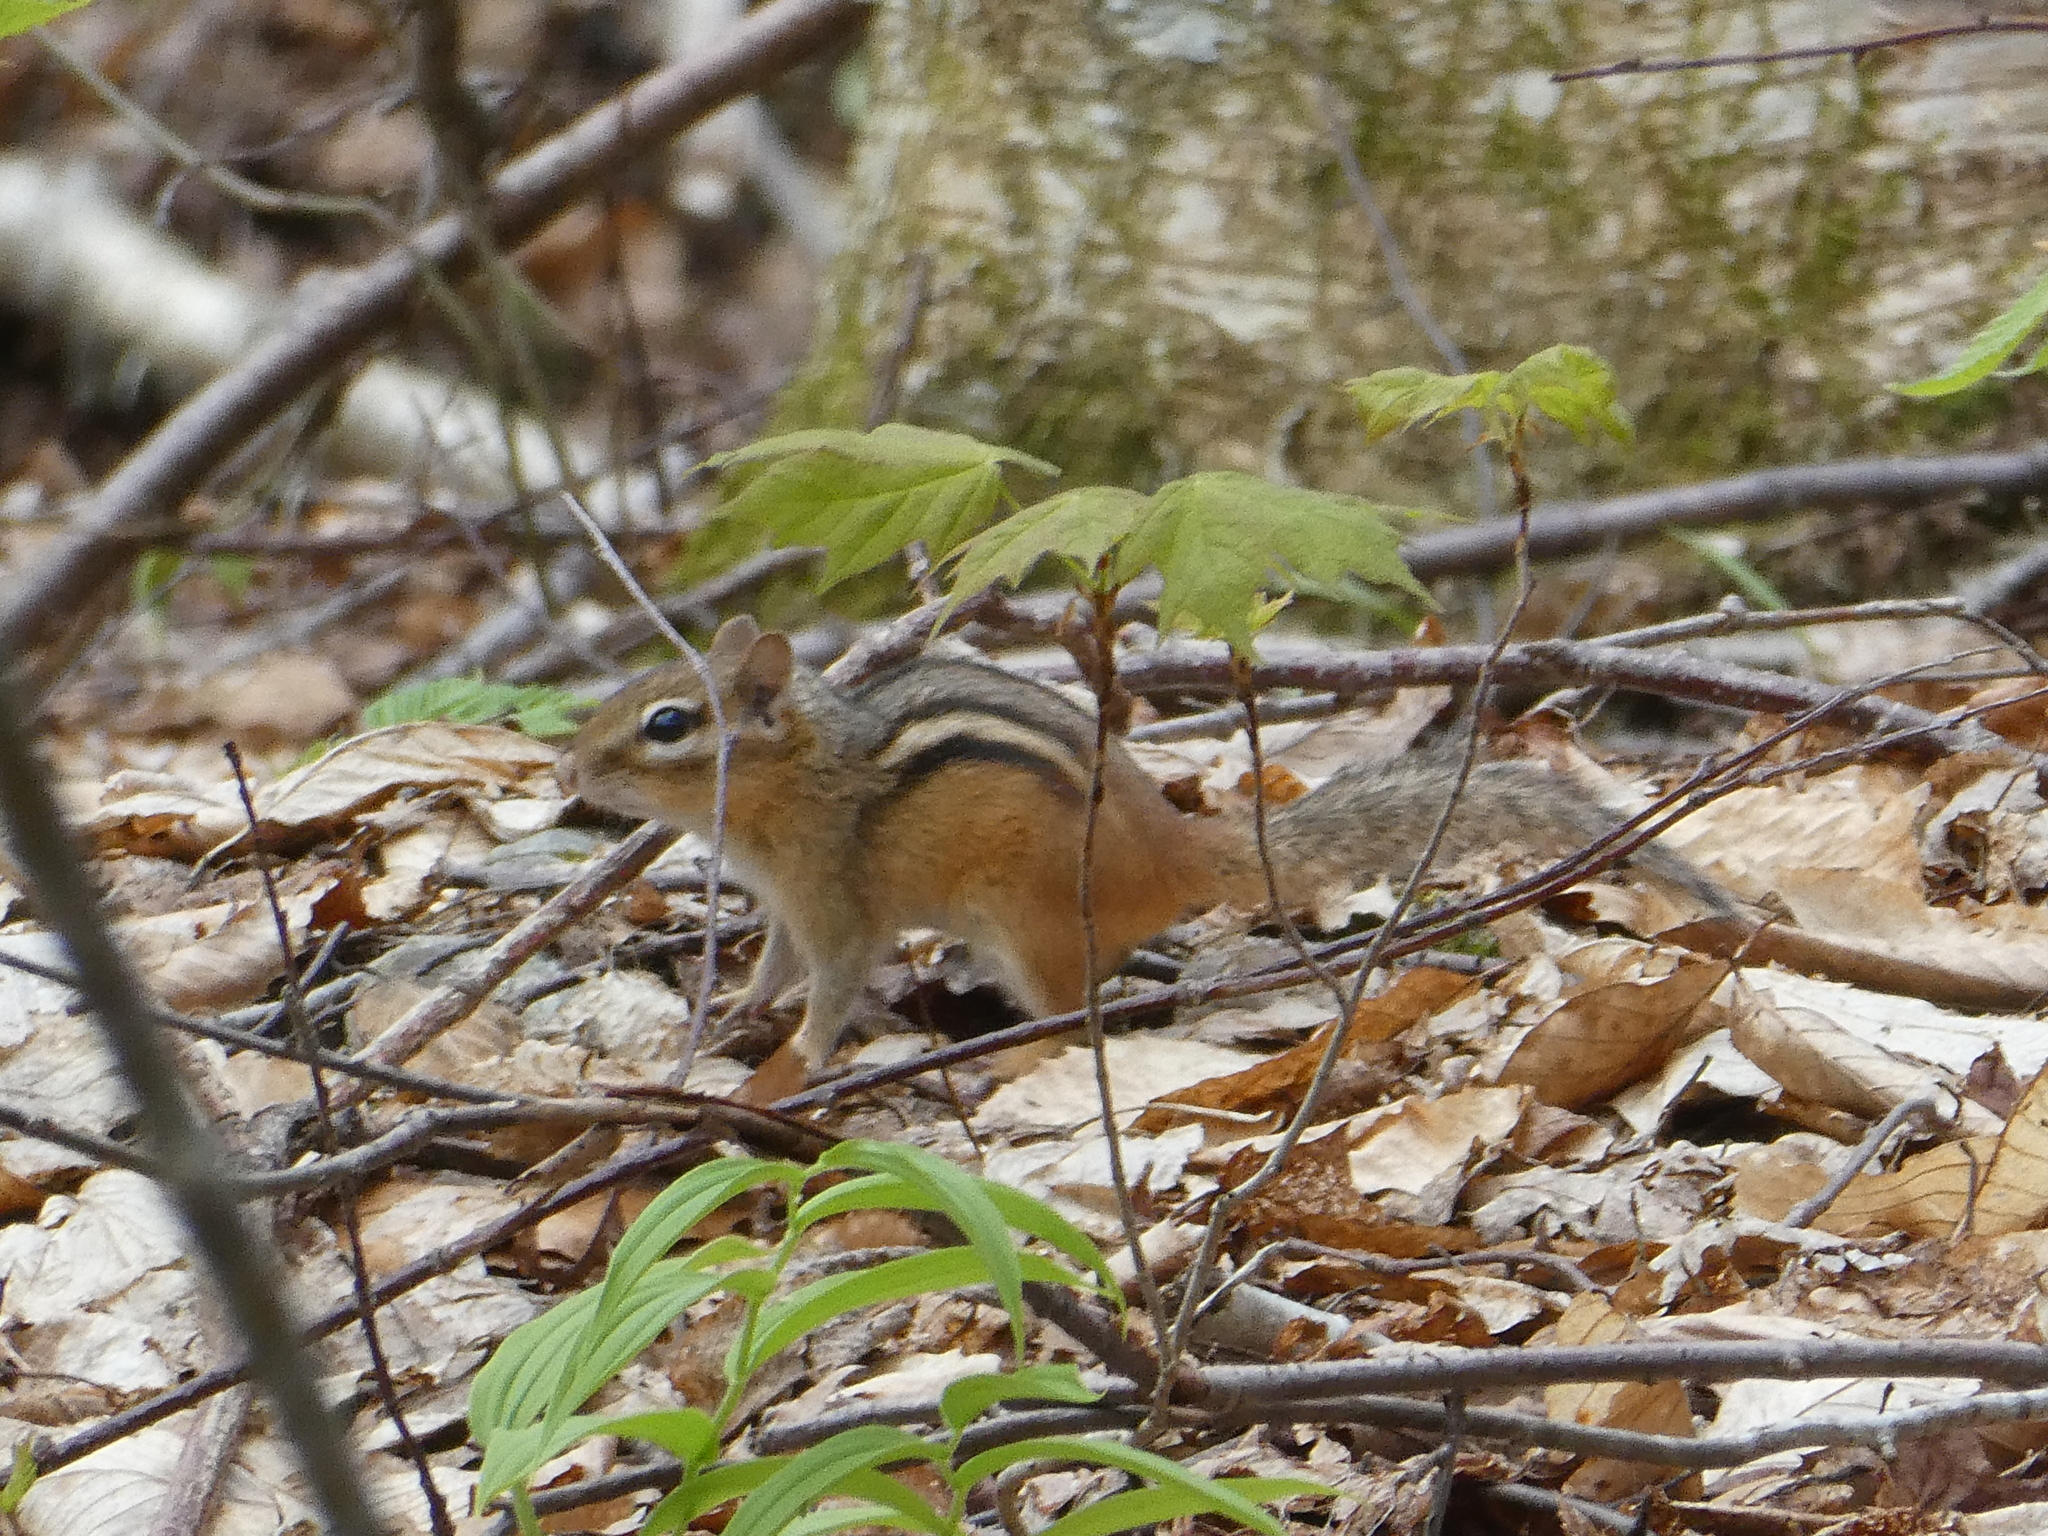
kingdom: Animalia
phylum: Chordata
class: Mammalia
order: Rodentia
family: Sciuridae
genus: Tamias
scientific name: Tamias striatus
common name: Eastern chipmunk
